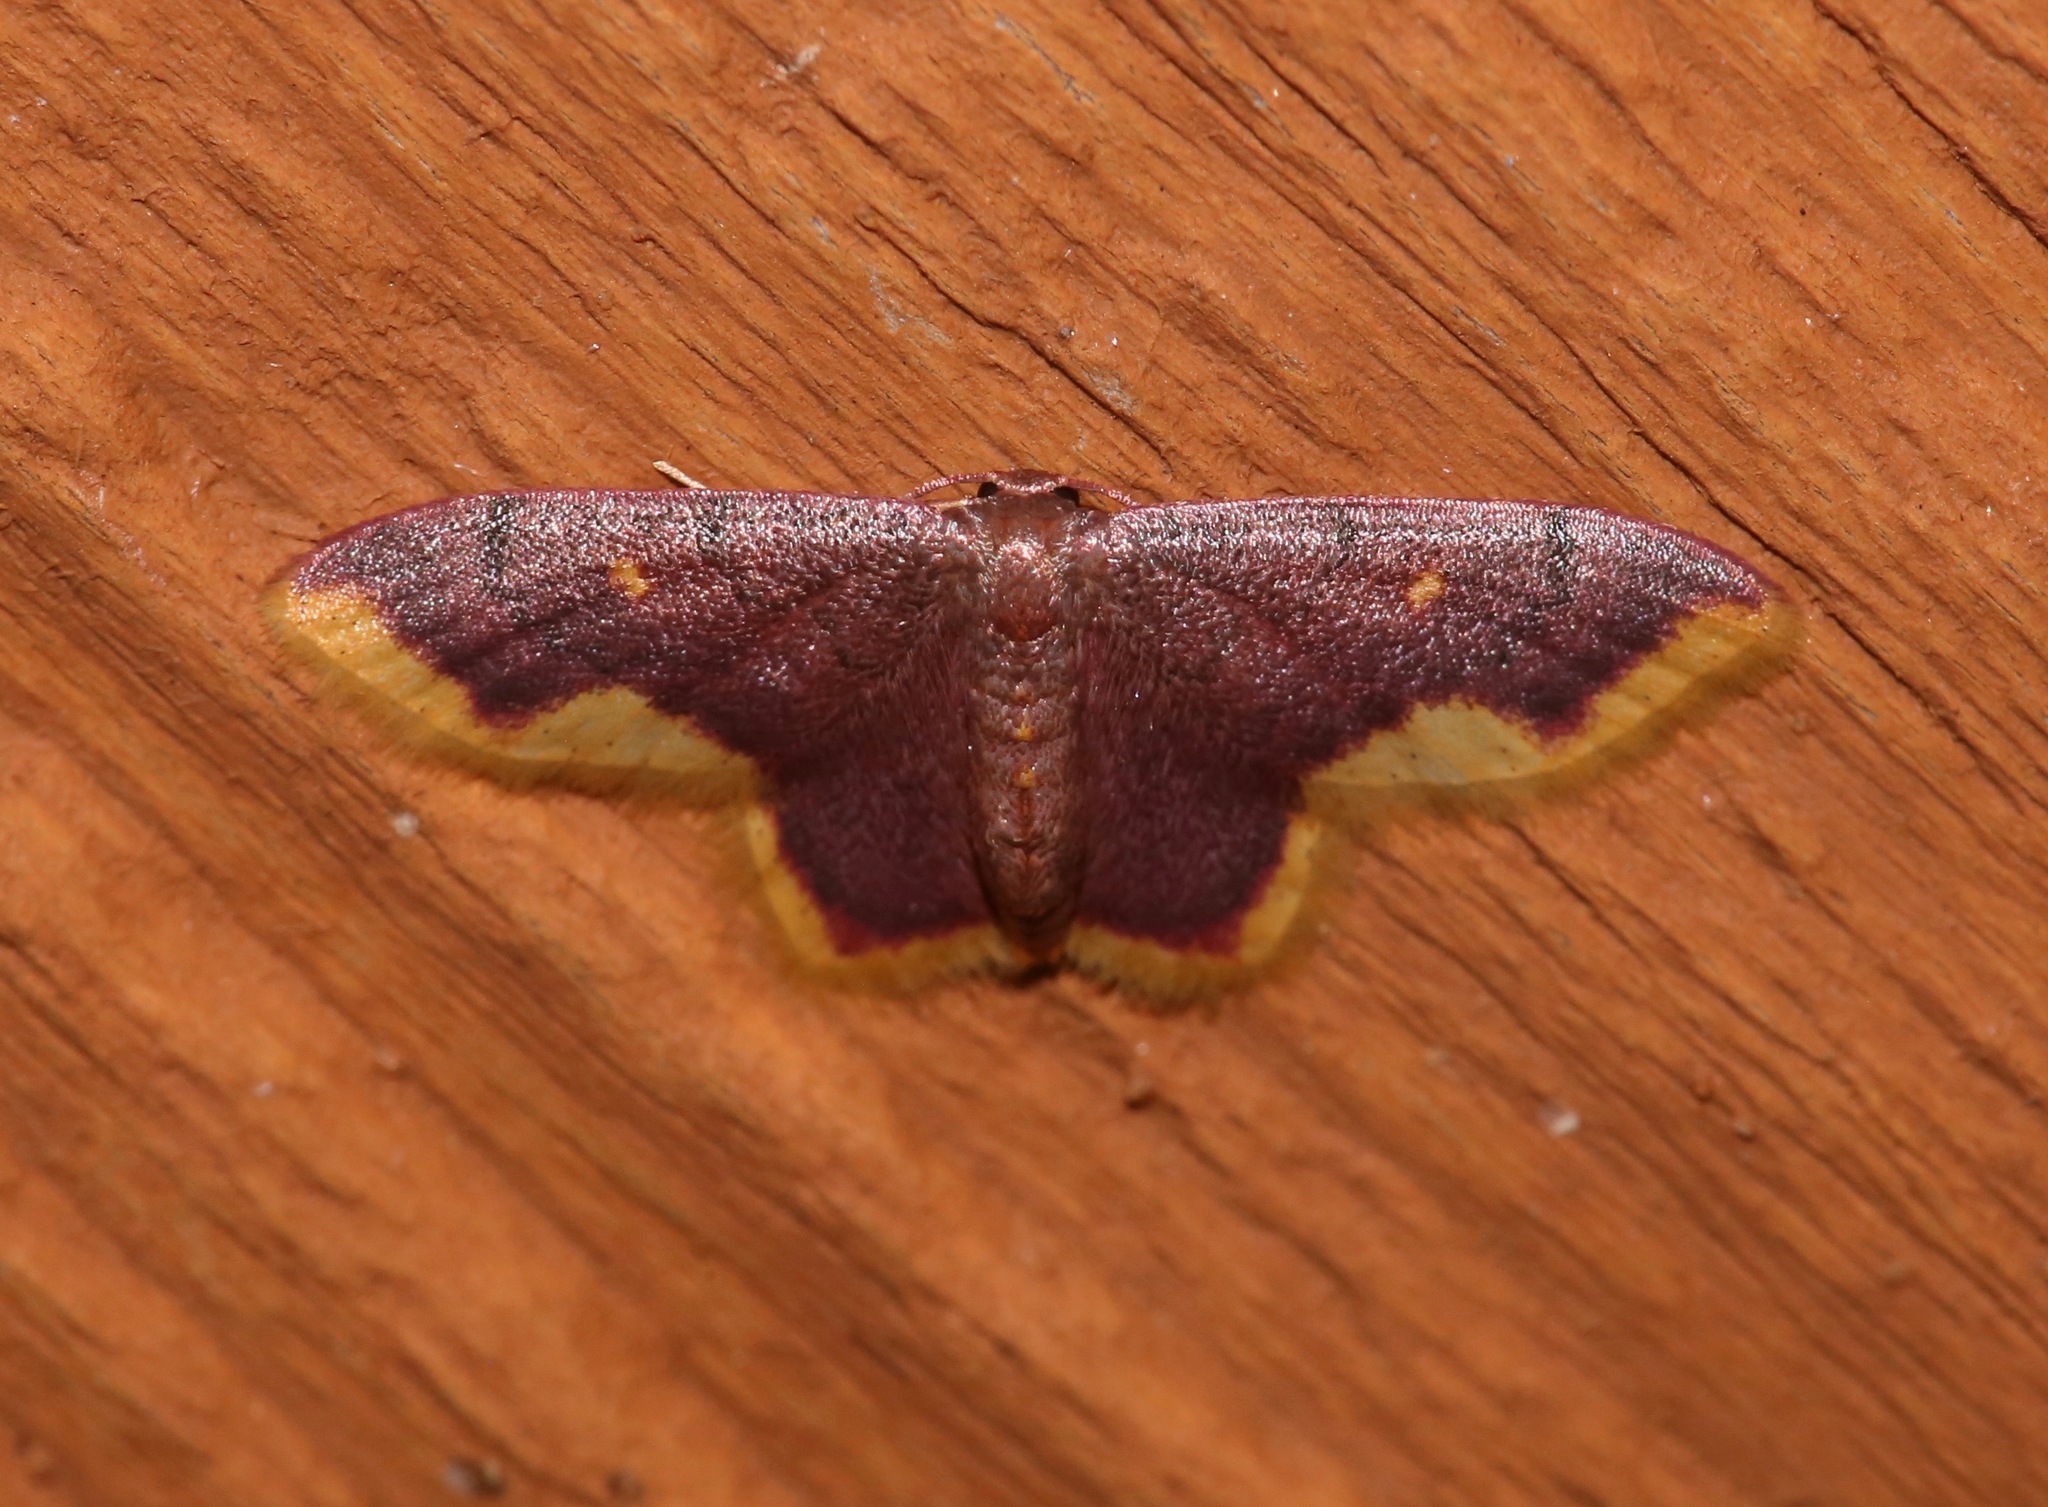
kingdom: Animalia
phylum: Arthropoda
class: Insecta
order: Lepidoptera
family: Geometridae
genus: Lophosis
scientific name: Lophosis labeculata
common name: Stained lophosis moth
